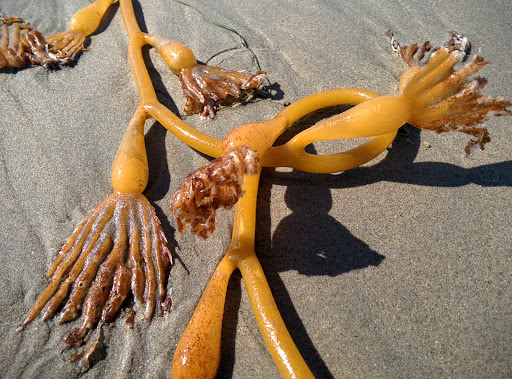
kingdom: Chromista
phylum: Ochrophyta
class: Phaeophyceae
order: Laminariales
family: Laminariaceae
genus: Macrocystis
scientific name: Macrocystis pyrifera
